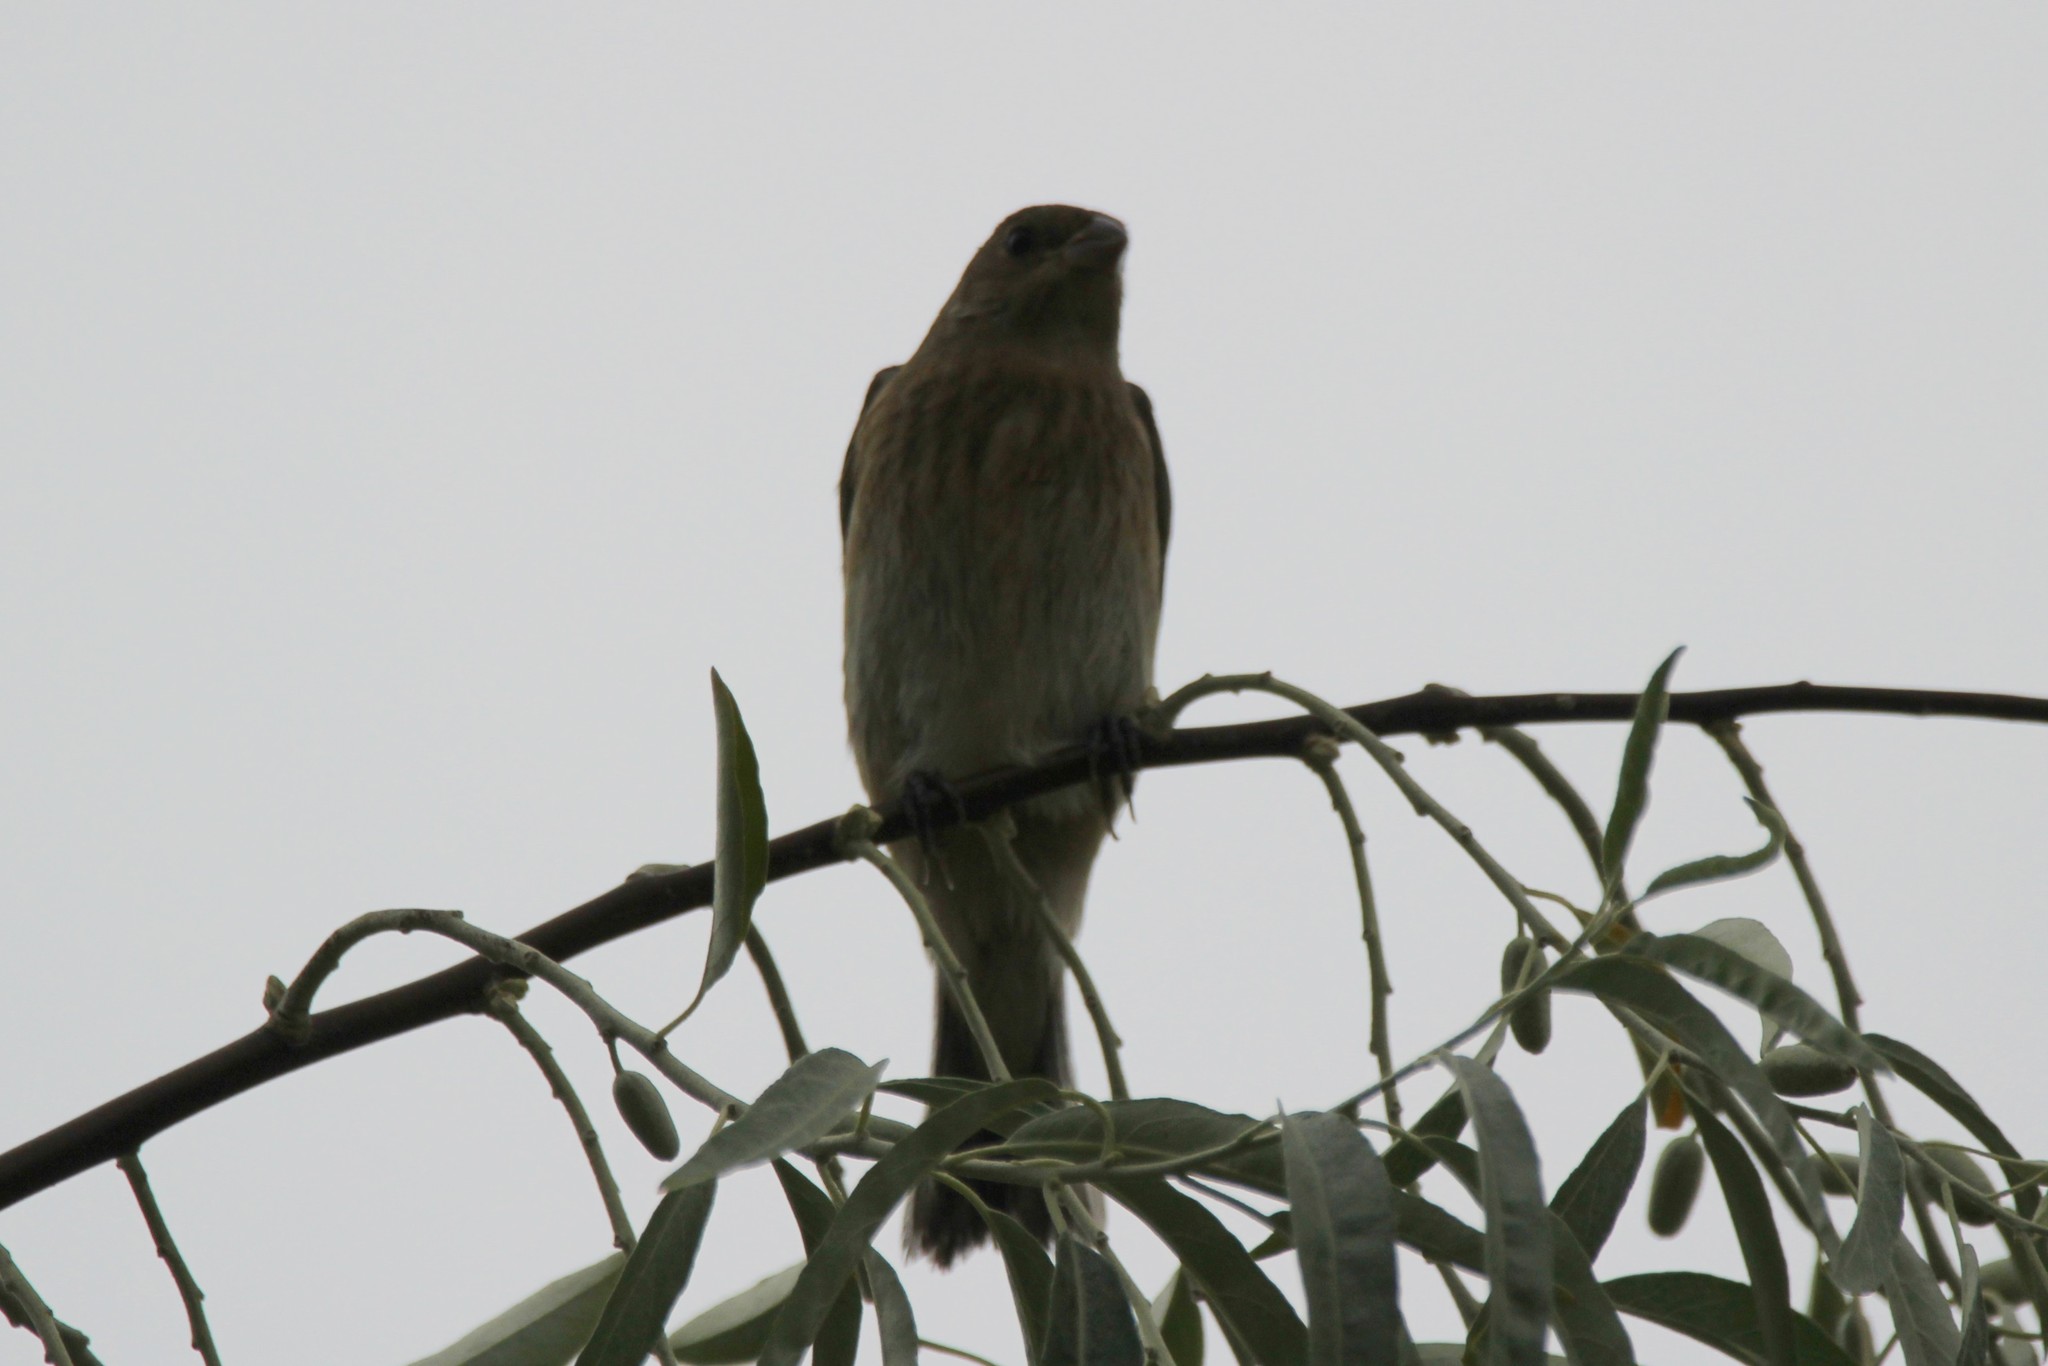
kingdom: Animalia
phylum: Chordata
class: Aves
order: Passeriformes
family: Cardinalidae
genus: Passerina
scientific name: Passerina amoena
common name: Lazuli bunting
